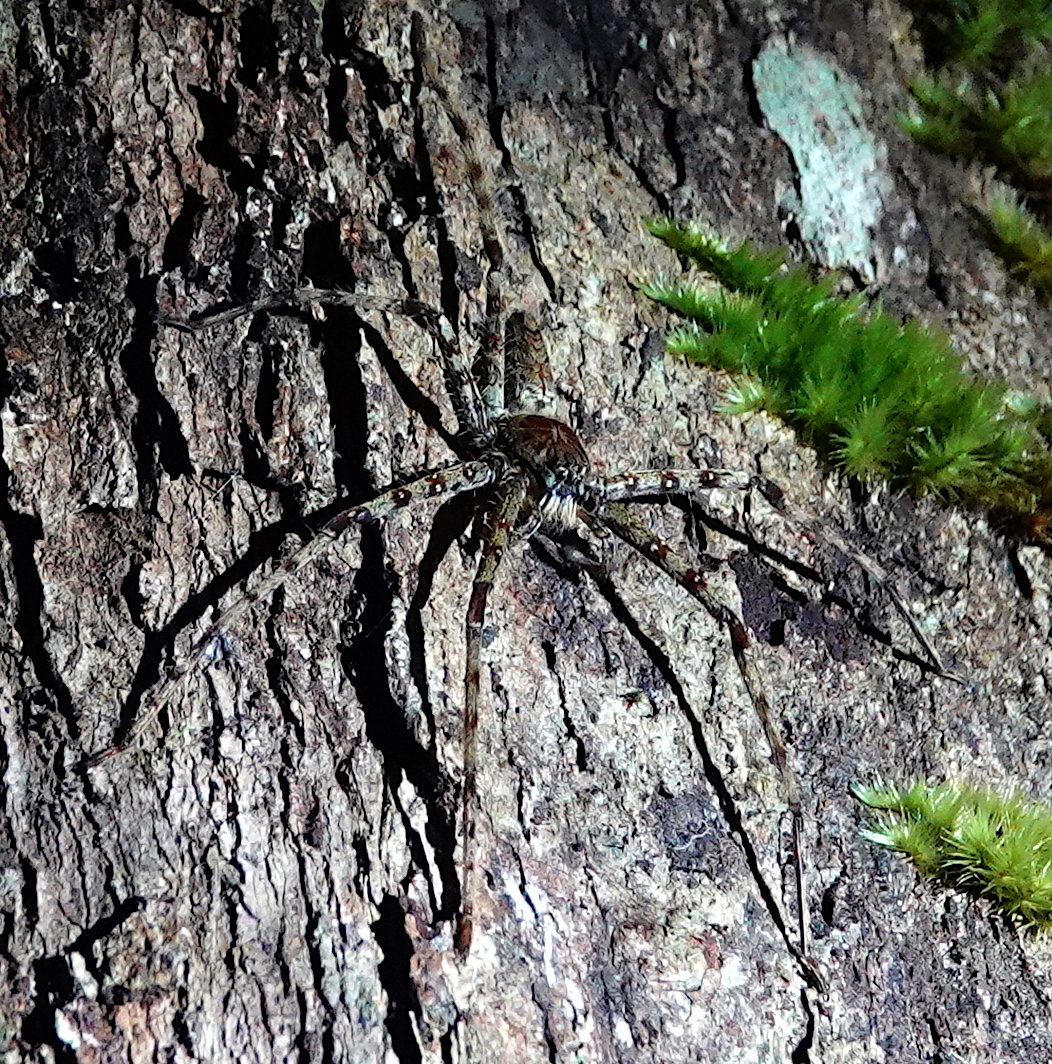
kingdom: Animalia
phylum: Arthropoda
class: Arachnida
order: Araneae
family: Sparassidae
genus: Heteropoda
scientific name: Heteropoda boiei
